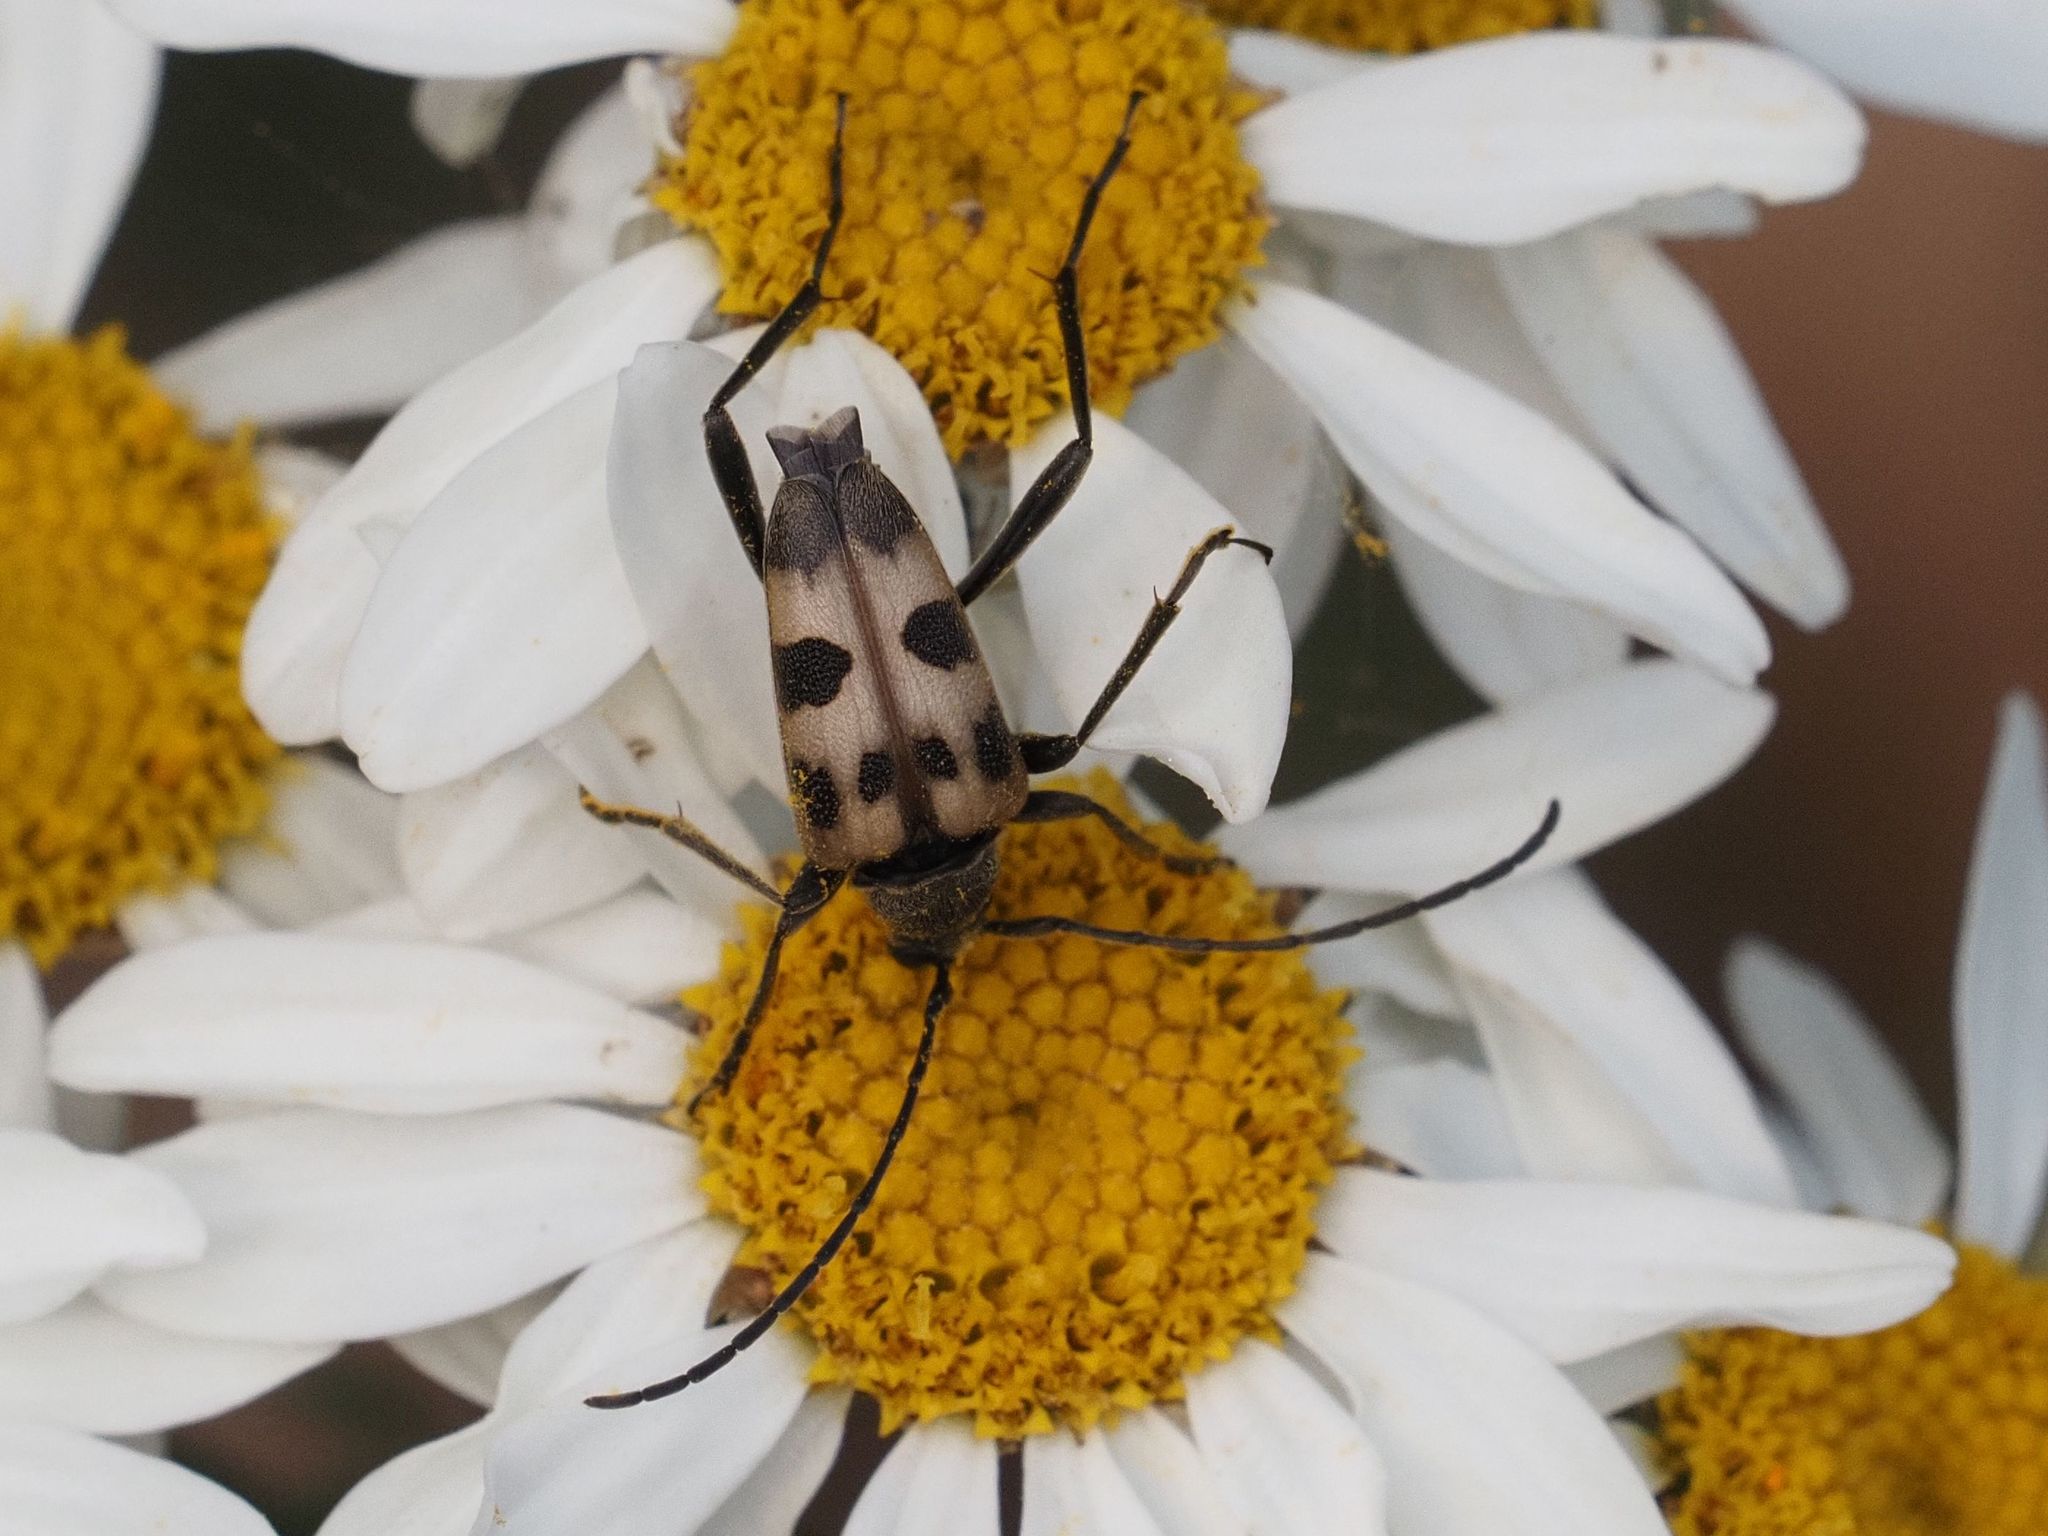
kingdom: Animalia
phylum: Arthropoda
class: Insecta
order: Coleoptera
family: Cerambycidae
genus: Pachytodes
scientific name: Pachytodes cerambyciformis
